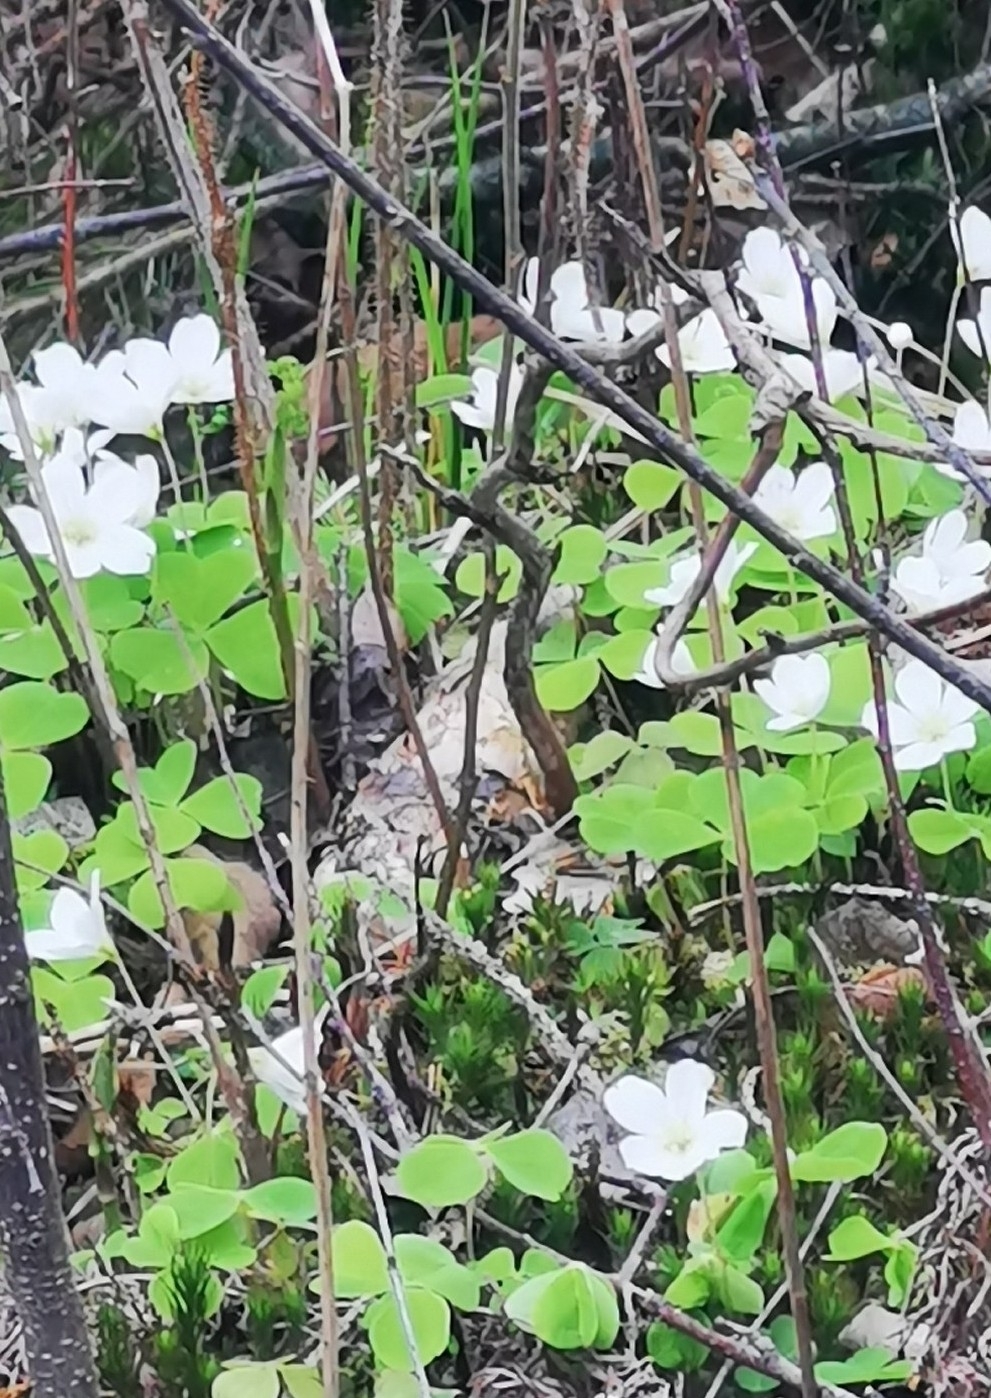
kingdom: Plantae
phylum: Tracheophyta
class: Magnoliopsida
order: Oxalidales
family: Oxalidaceae
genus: Oxalis
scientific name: Oxalis acetosella
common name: Wood-sorrel
